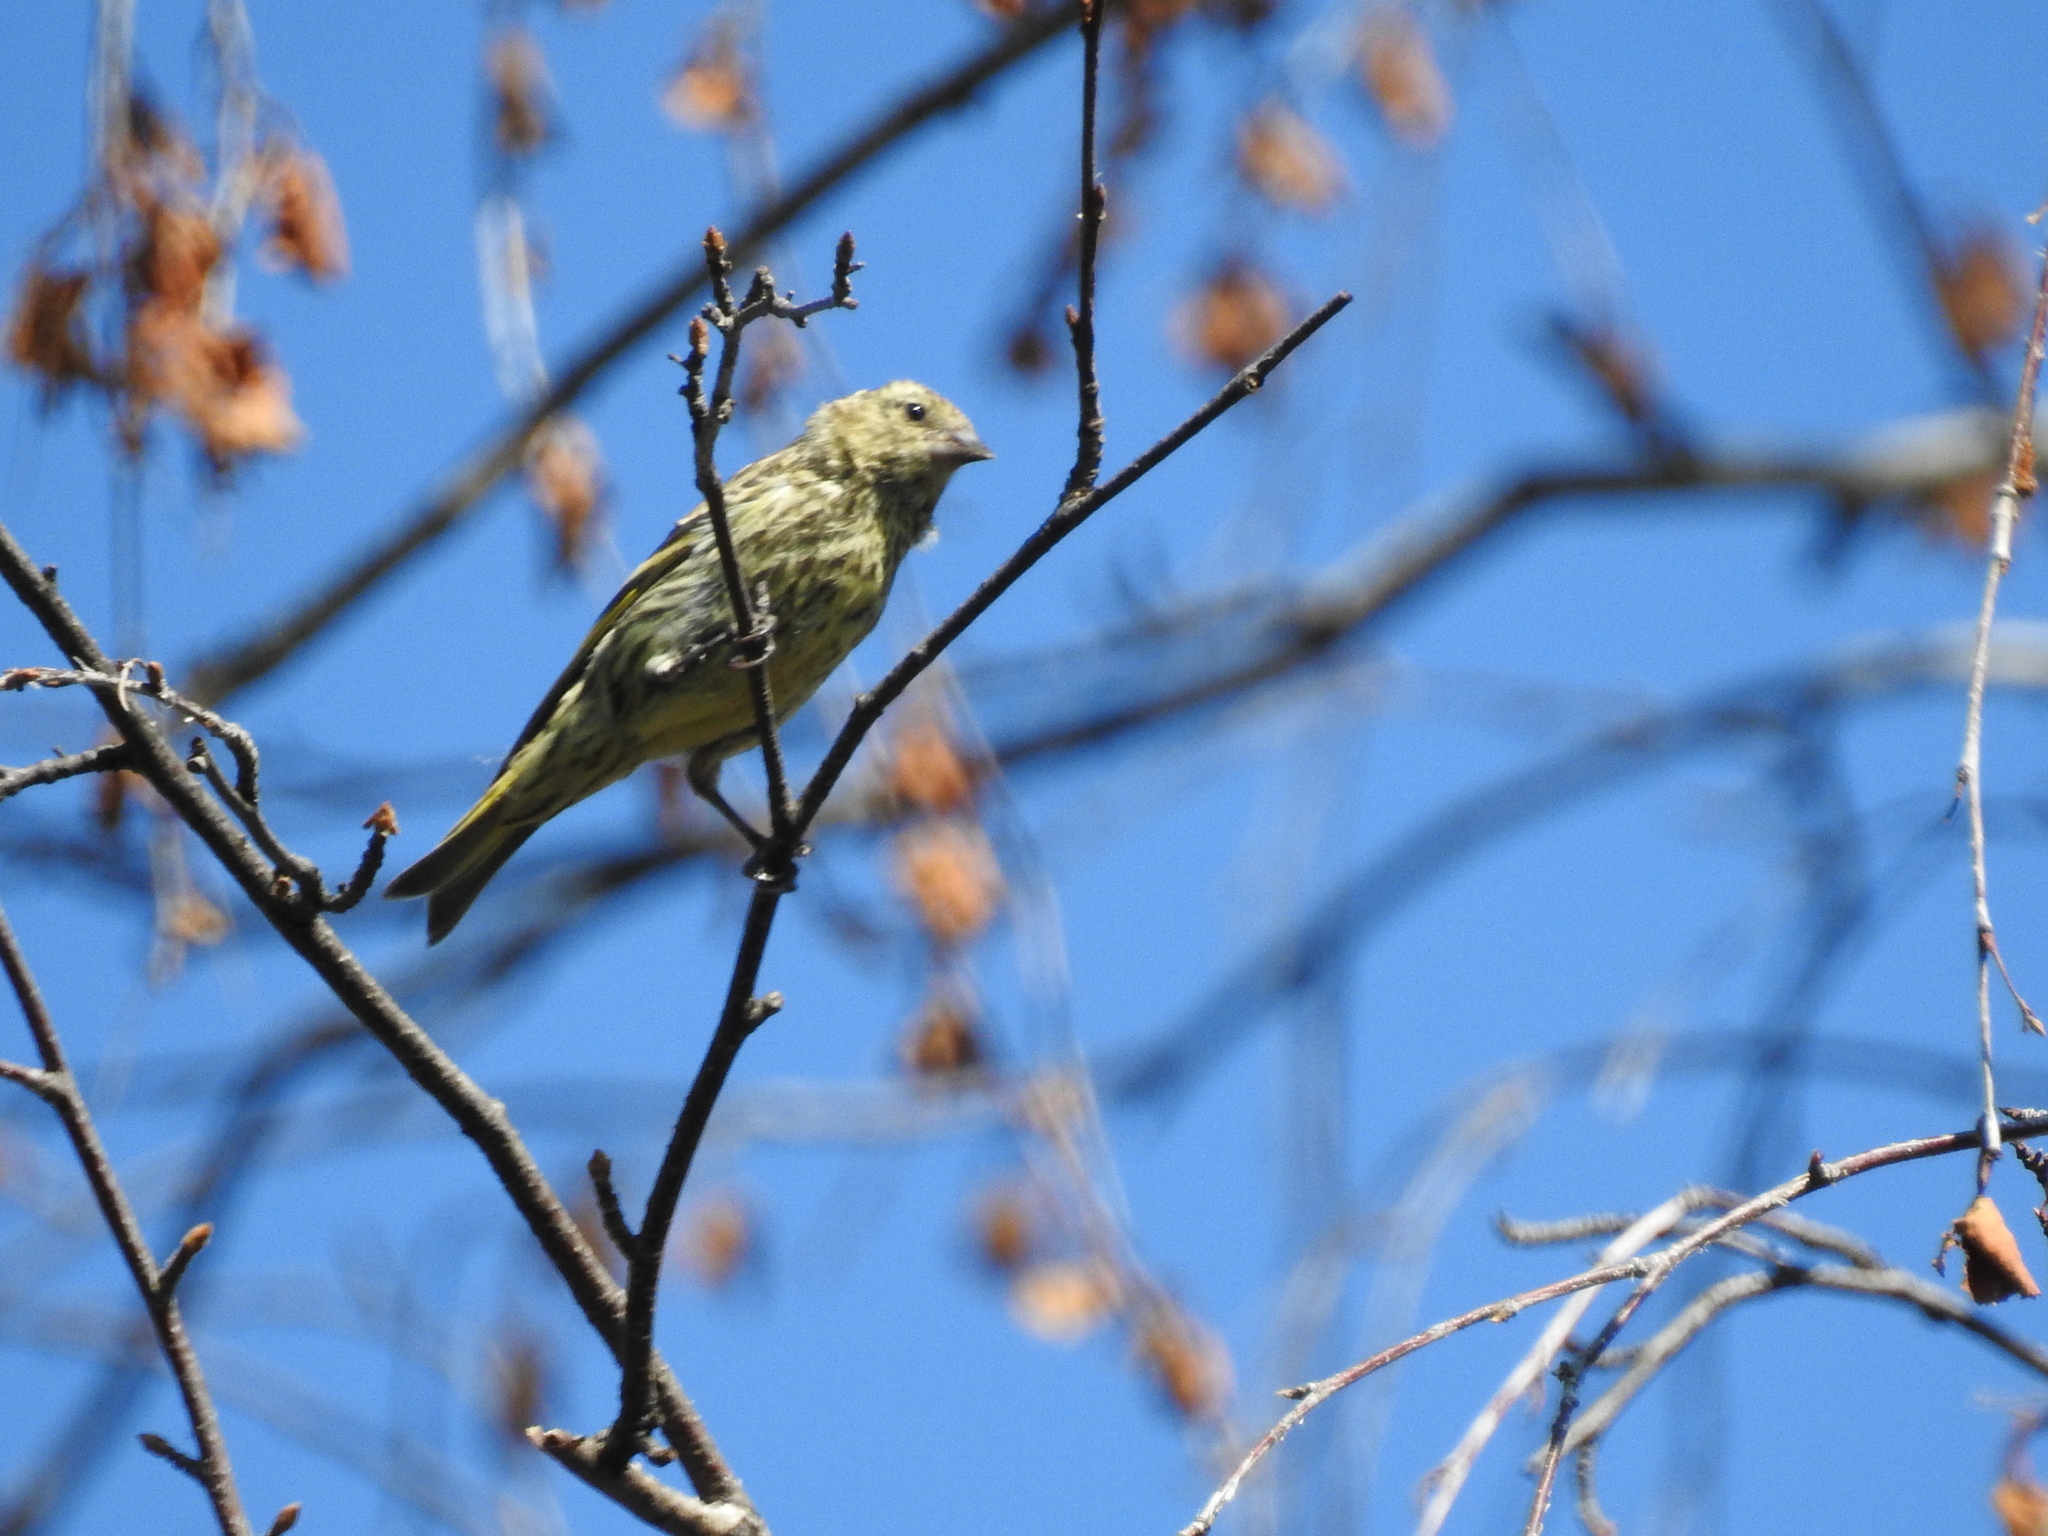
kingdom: Animalia
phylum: Chordata
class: Aves
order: Passeriformes
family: Fringillidae
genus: Spinus
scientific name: Spinus spinus
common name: Eurasian siskin
